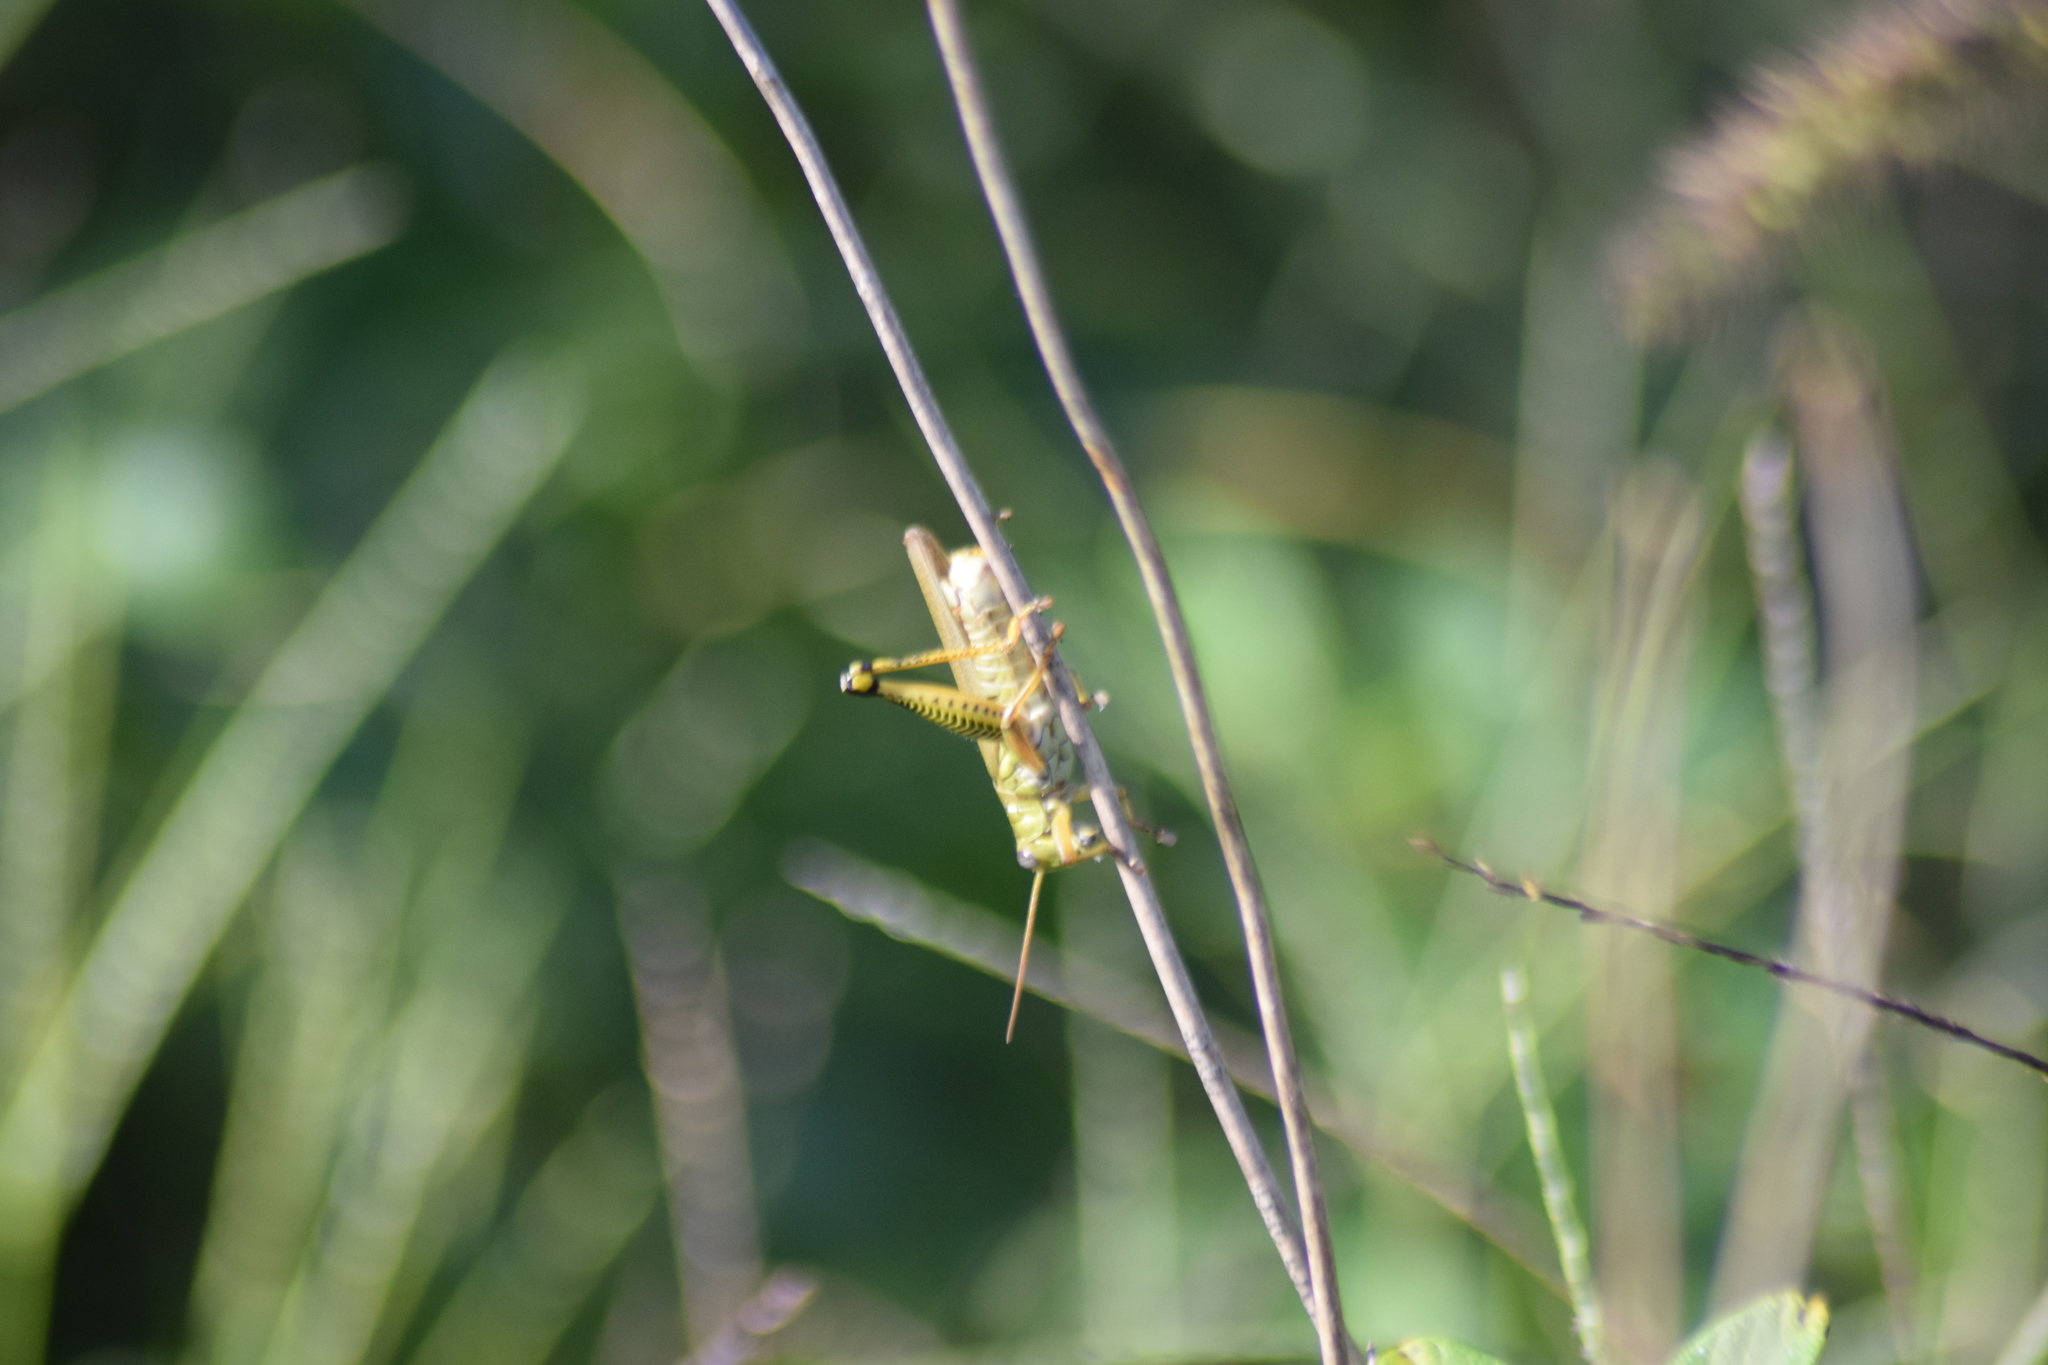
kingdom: Animalia
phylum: Arthropoda
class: Insecta
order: Orthoptera
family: Acrididae
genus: Melanoplus
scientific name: Melanoplus differentialis
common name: Differential grasshopper
